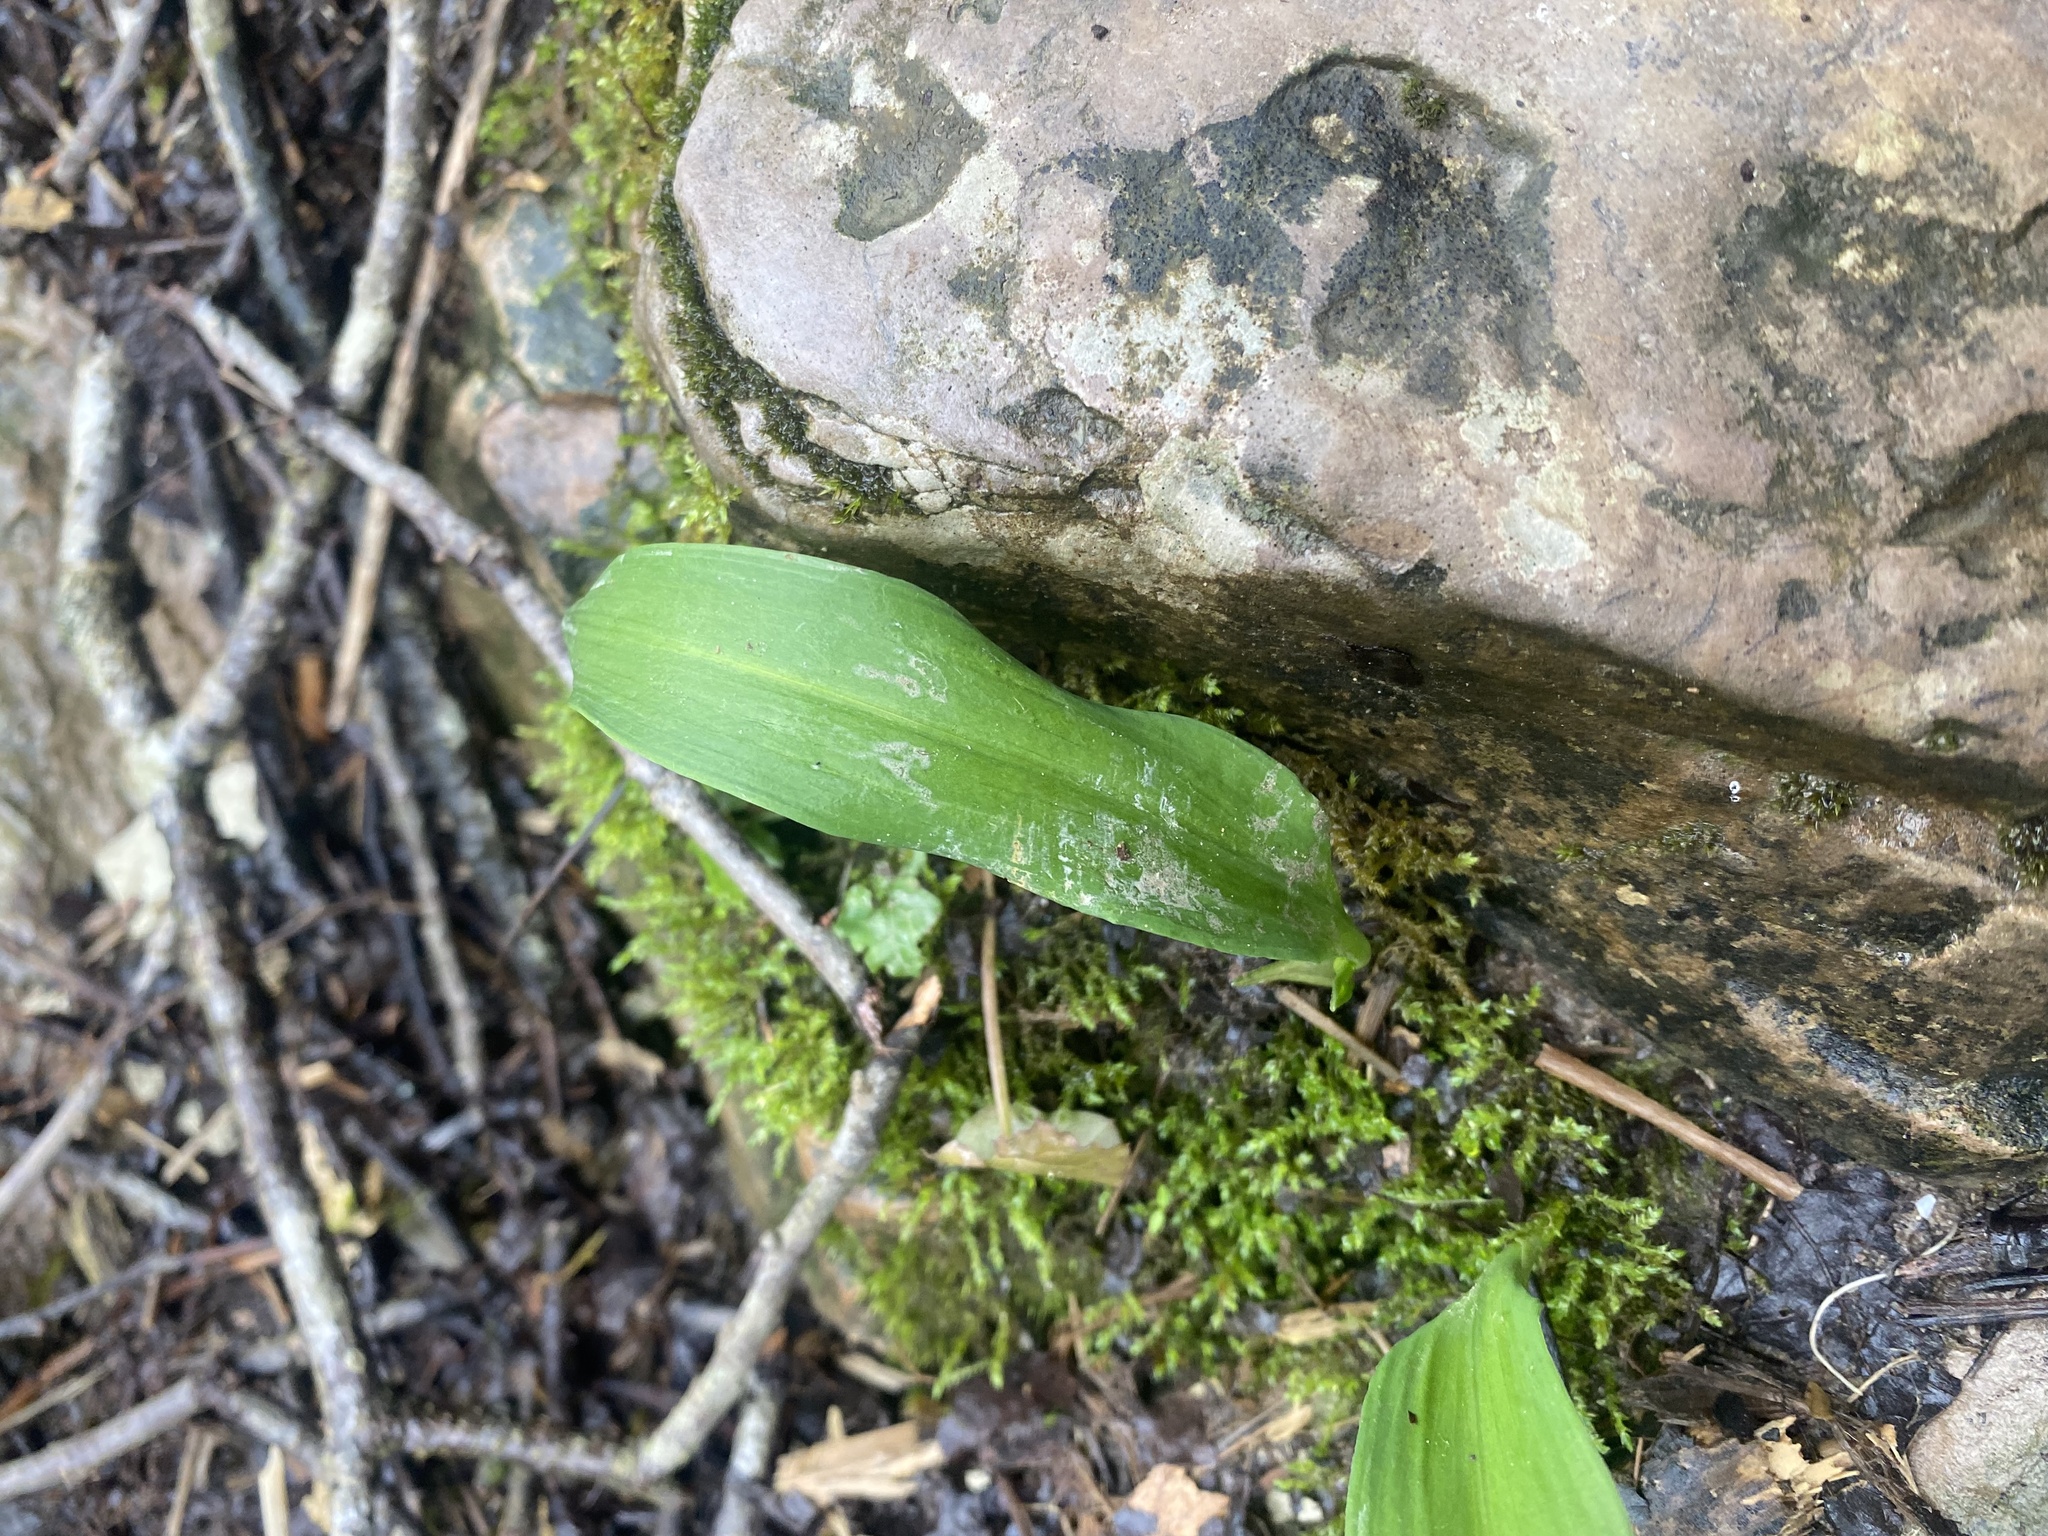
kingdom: Plantae
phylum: Tracheophyta
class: Liliopsida
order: Asparagales
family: Amaryllidaceae
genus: Allium
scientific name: Allium ursinum
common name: Ramsons
